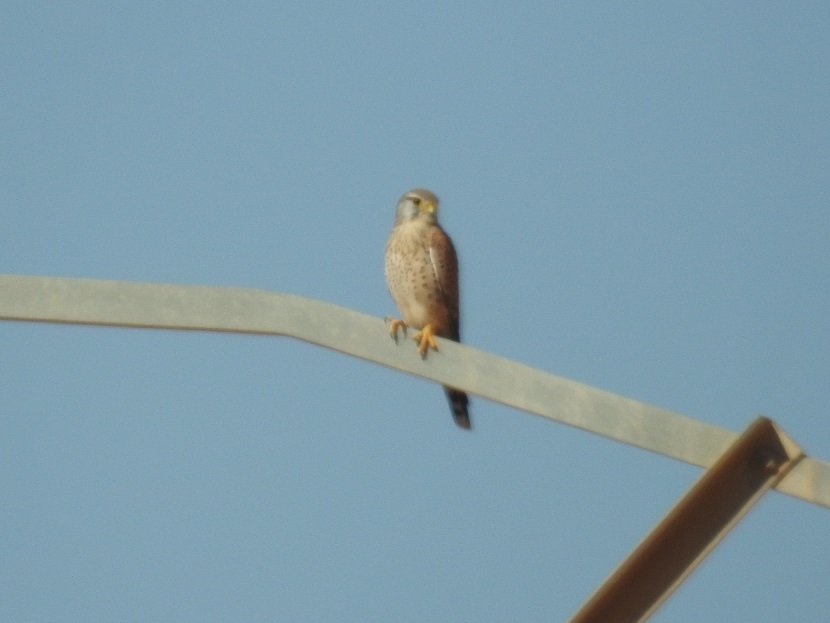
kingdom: Animalia
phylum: Chordata
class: Aves
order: Falconiformes
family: Falconidae
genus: Falco
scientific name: Falco tinnunculus
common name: Common kestrel
